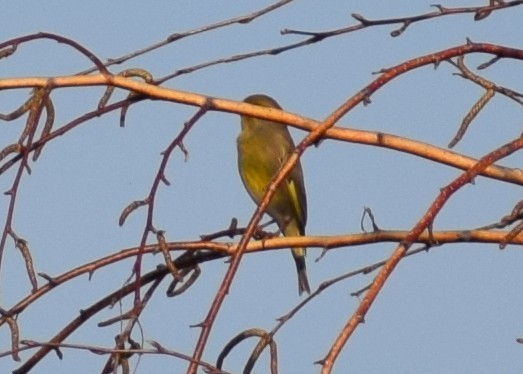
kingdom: Plantae
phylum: Tracheophyta
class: Liliopsida
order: Poales
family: Poaceae
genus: Chloris
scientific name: Chloris chloris
